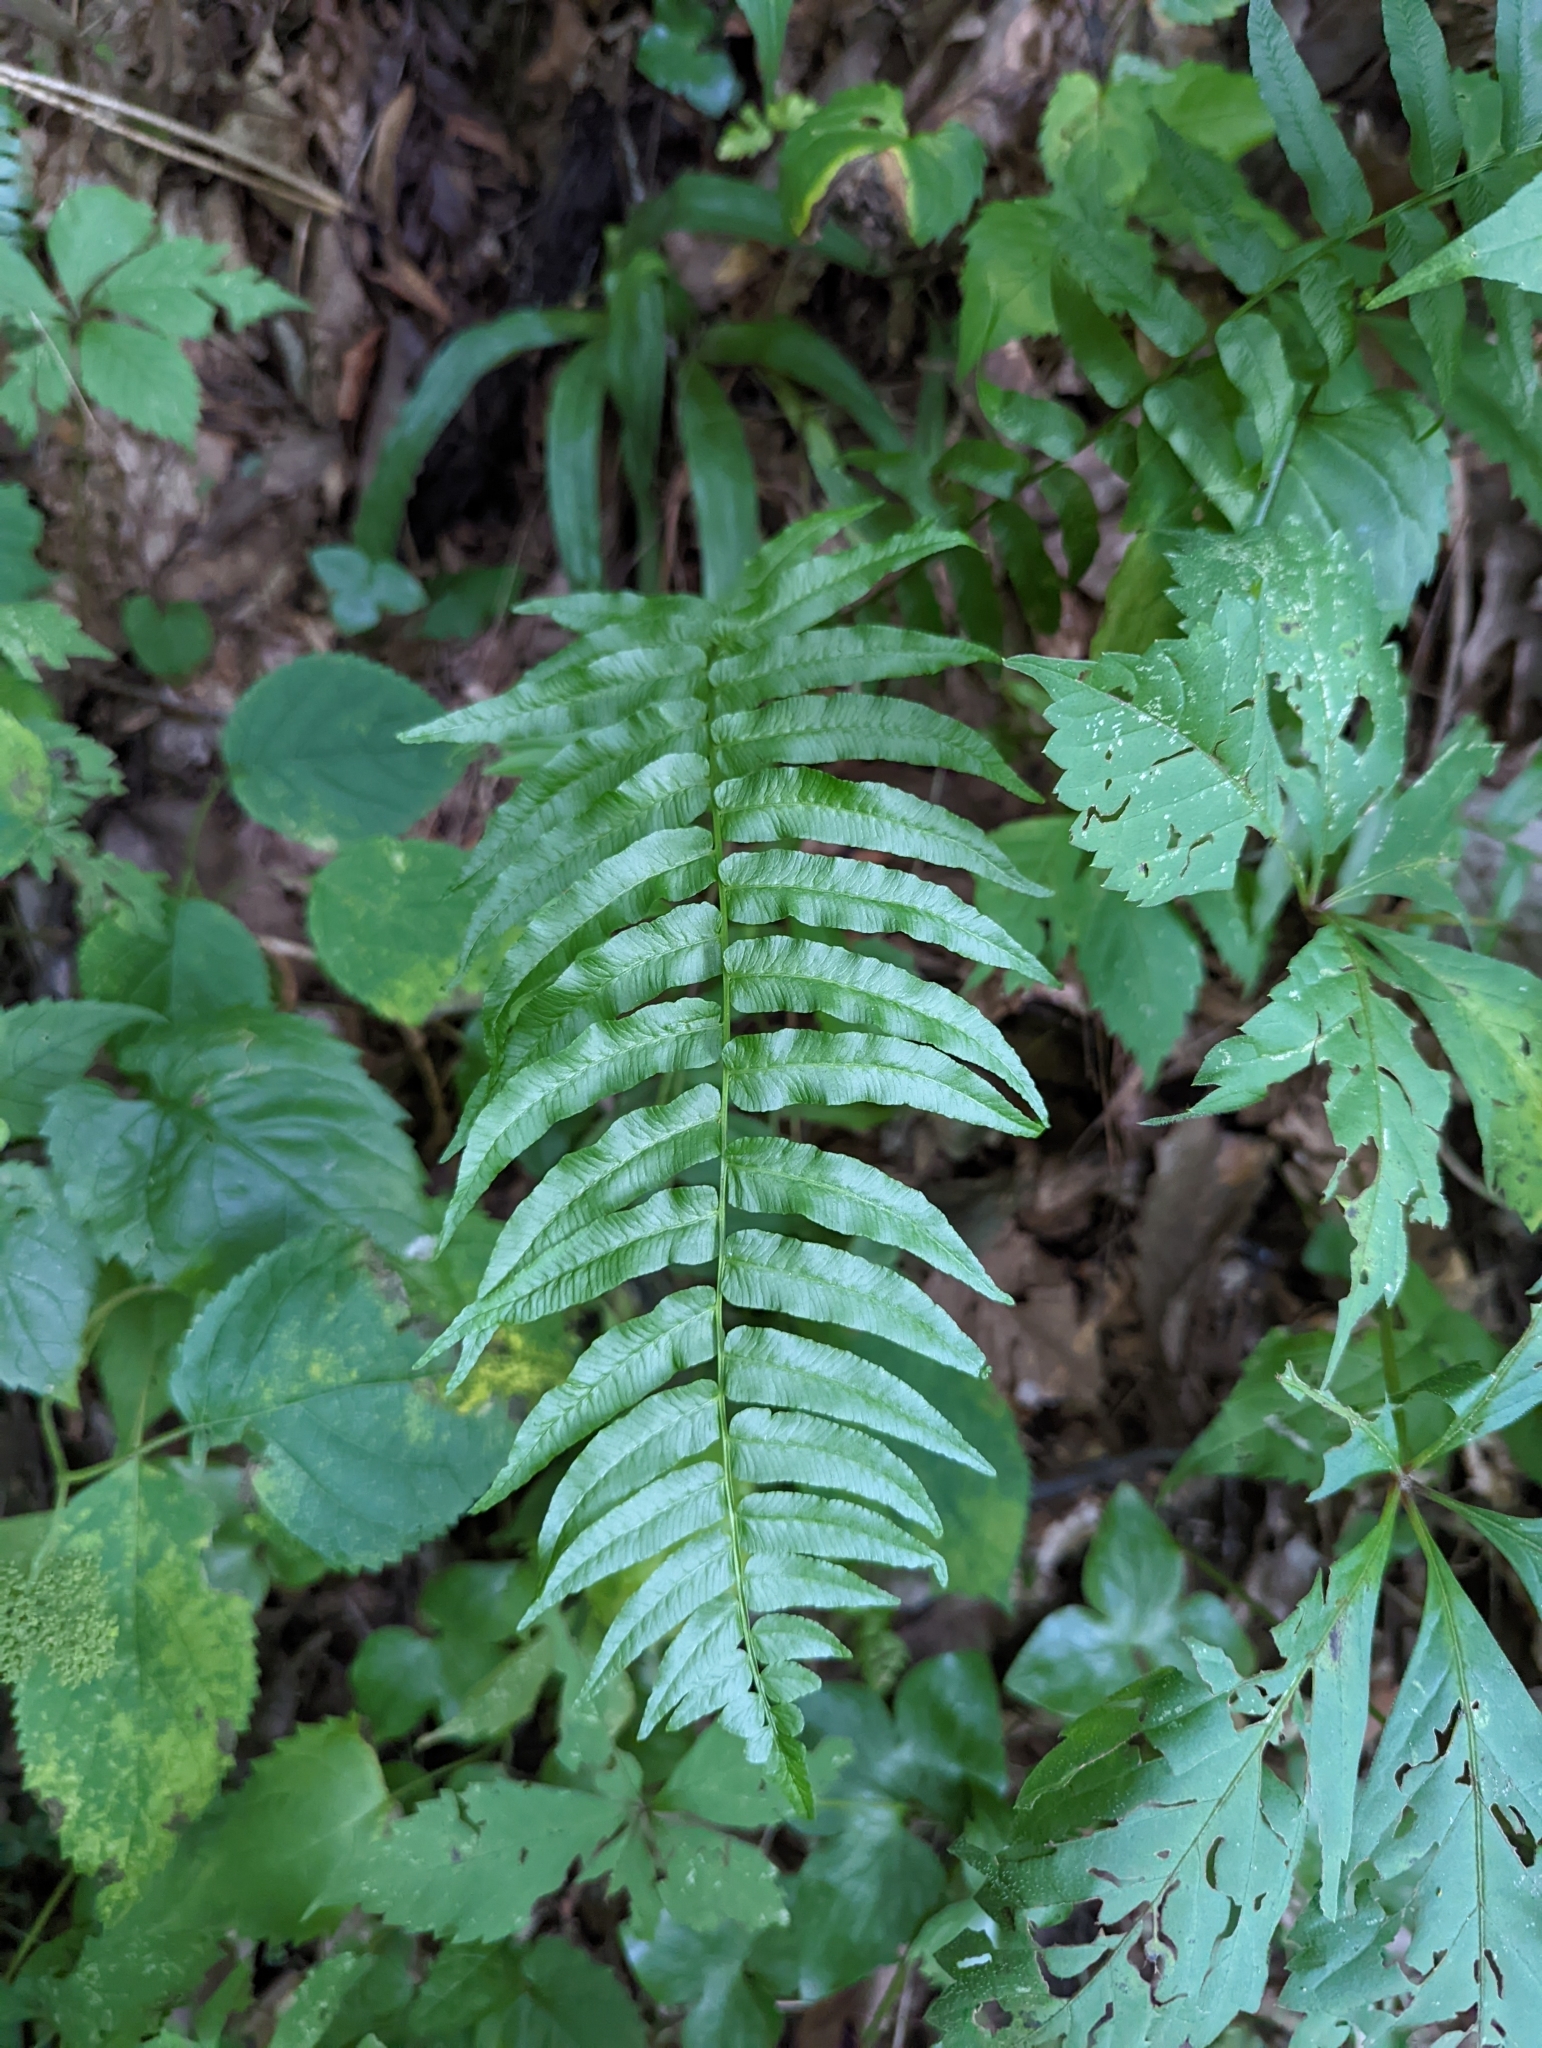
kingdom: Plantae
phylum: Tracheophyta
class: Polypodiopsida
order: Polypodiales
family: Diplaziopsidaceae
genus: Homalosorus
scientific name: Homalosorus pycnocarpos
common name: Glade fern
